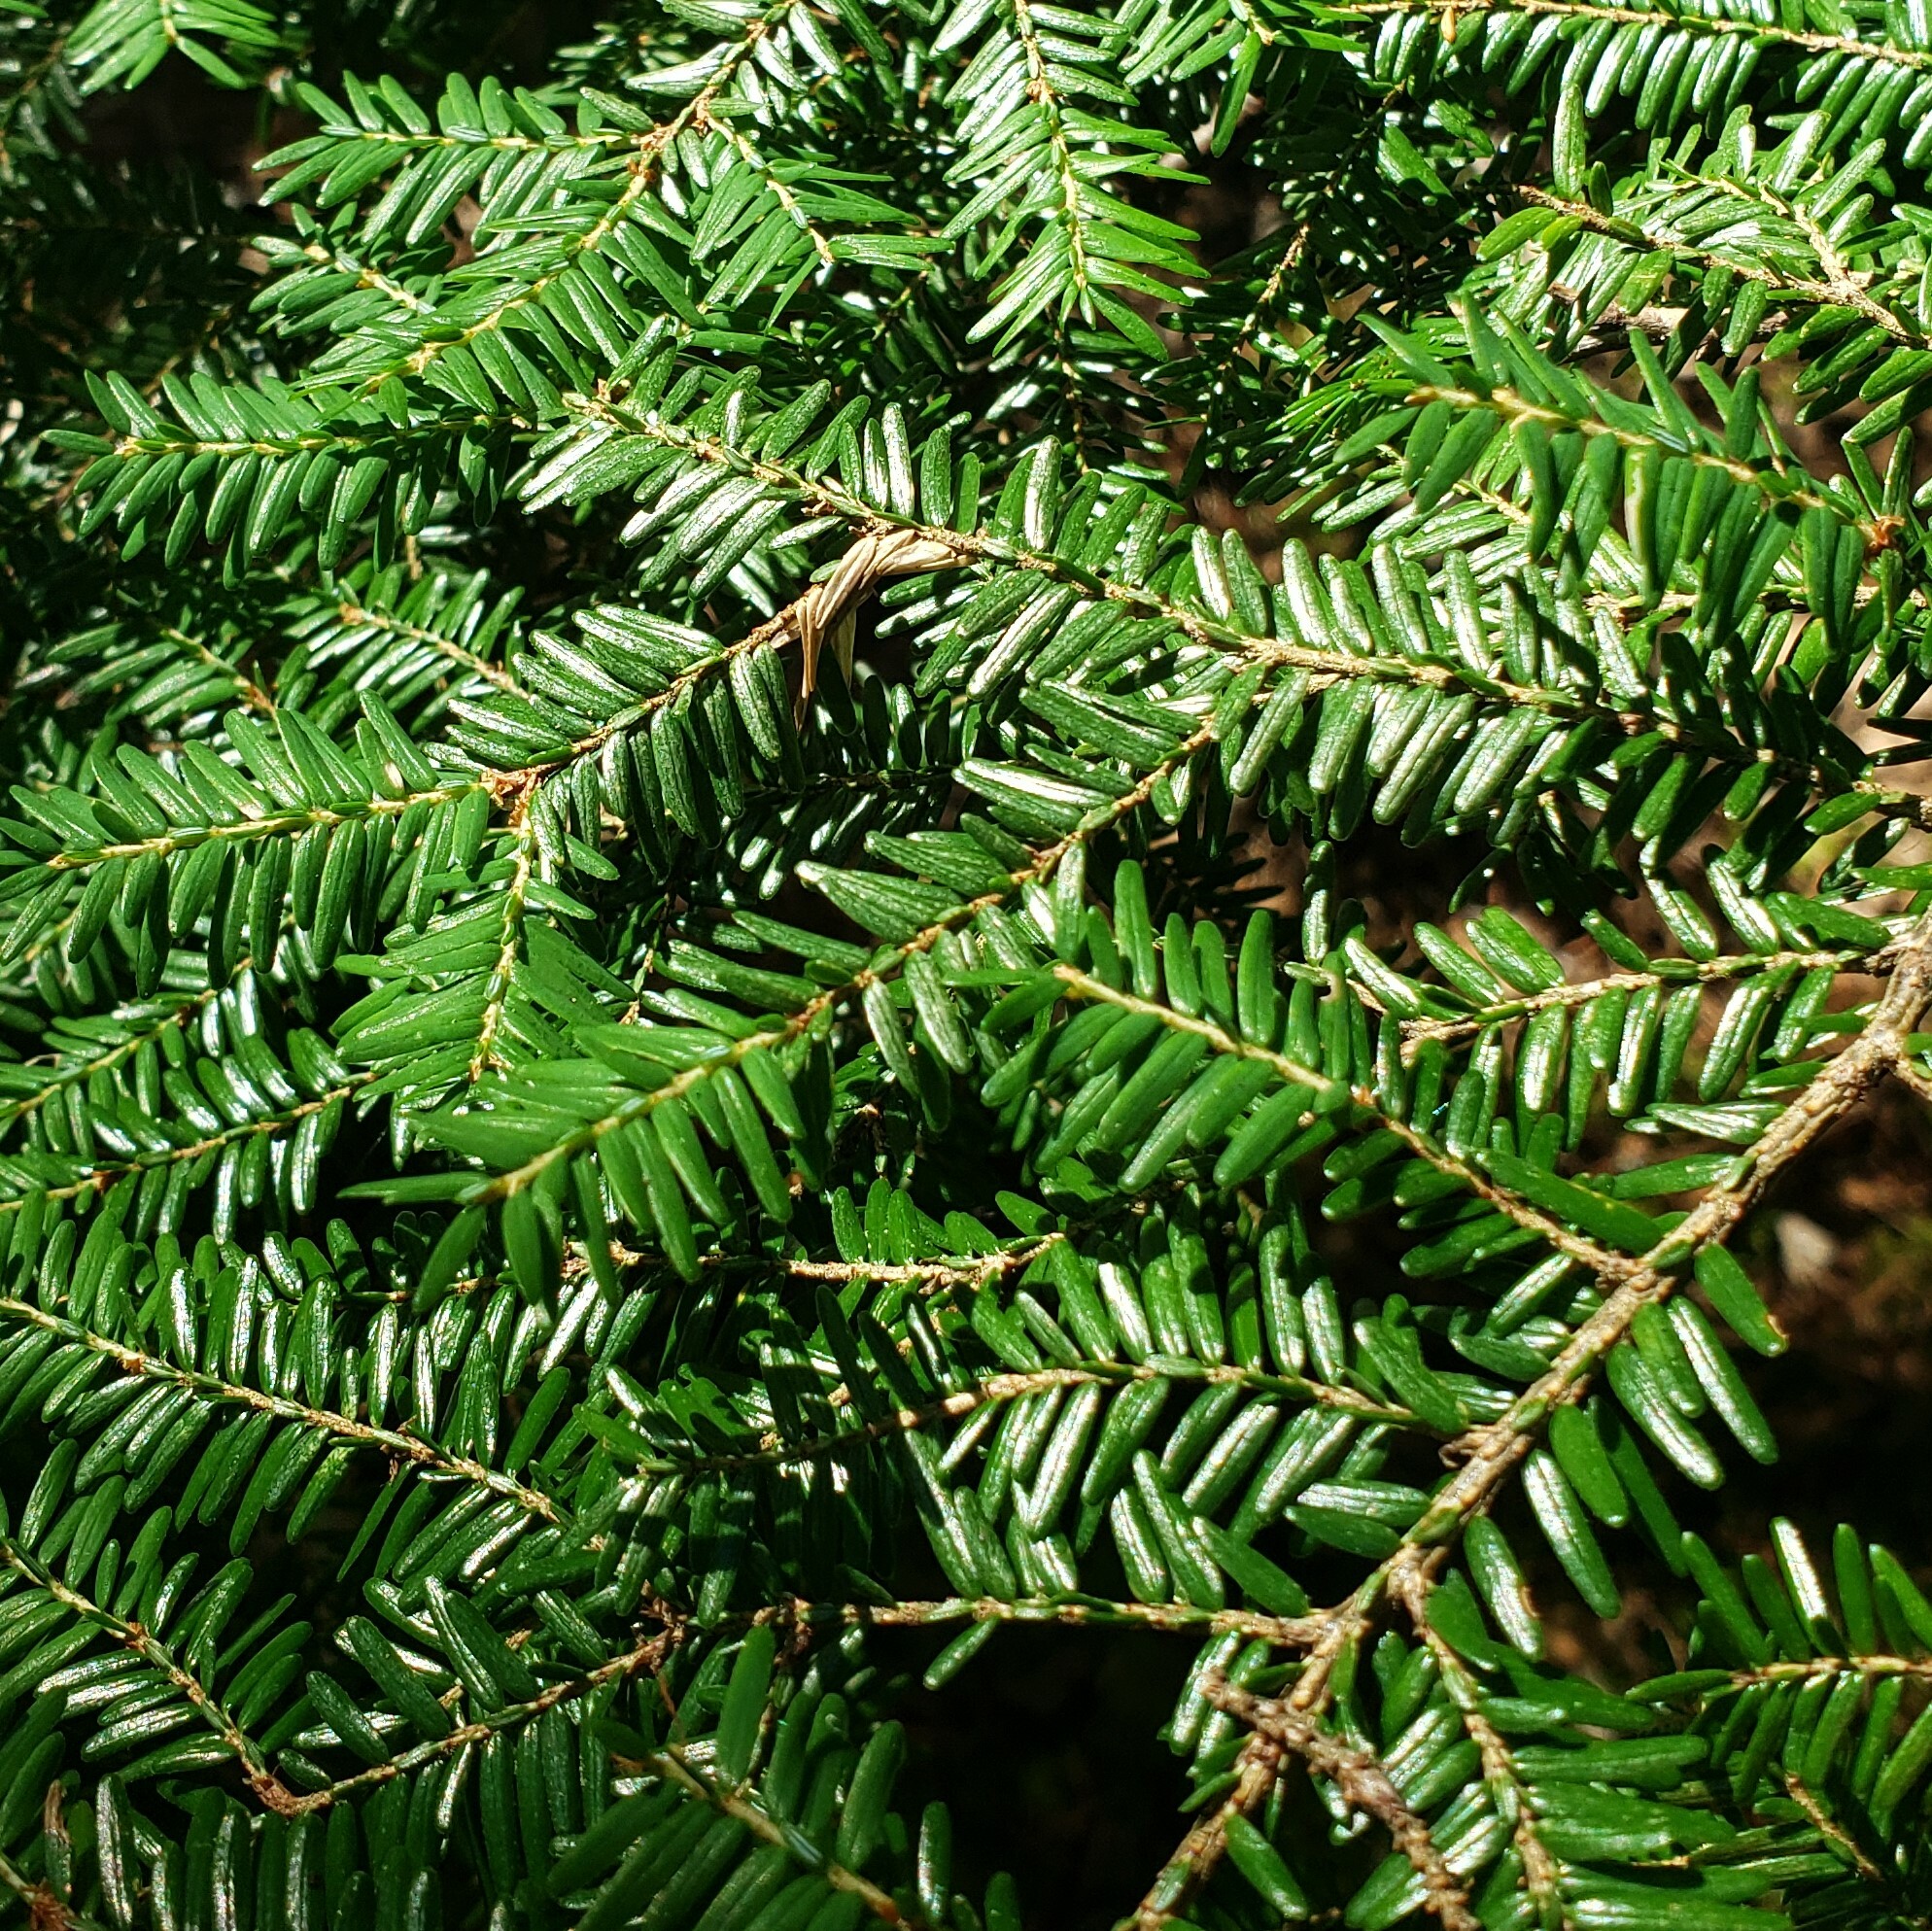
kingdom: Plantae
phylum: Tracheophyta
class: Pinopsida
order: Pinales
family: Pinaceae
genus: Tsuga
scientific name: Tsuga canadensis
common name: Eastern hemlock
